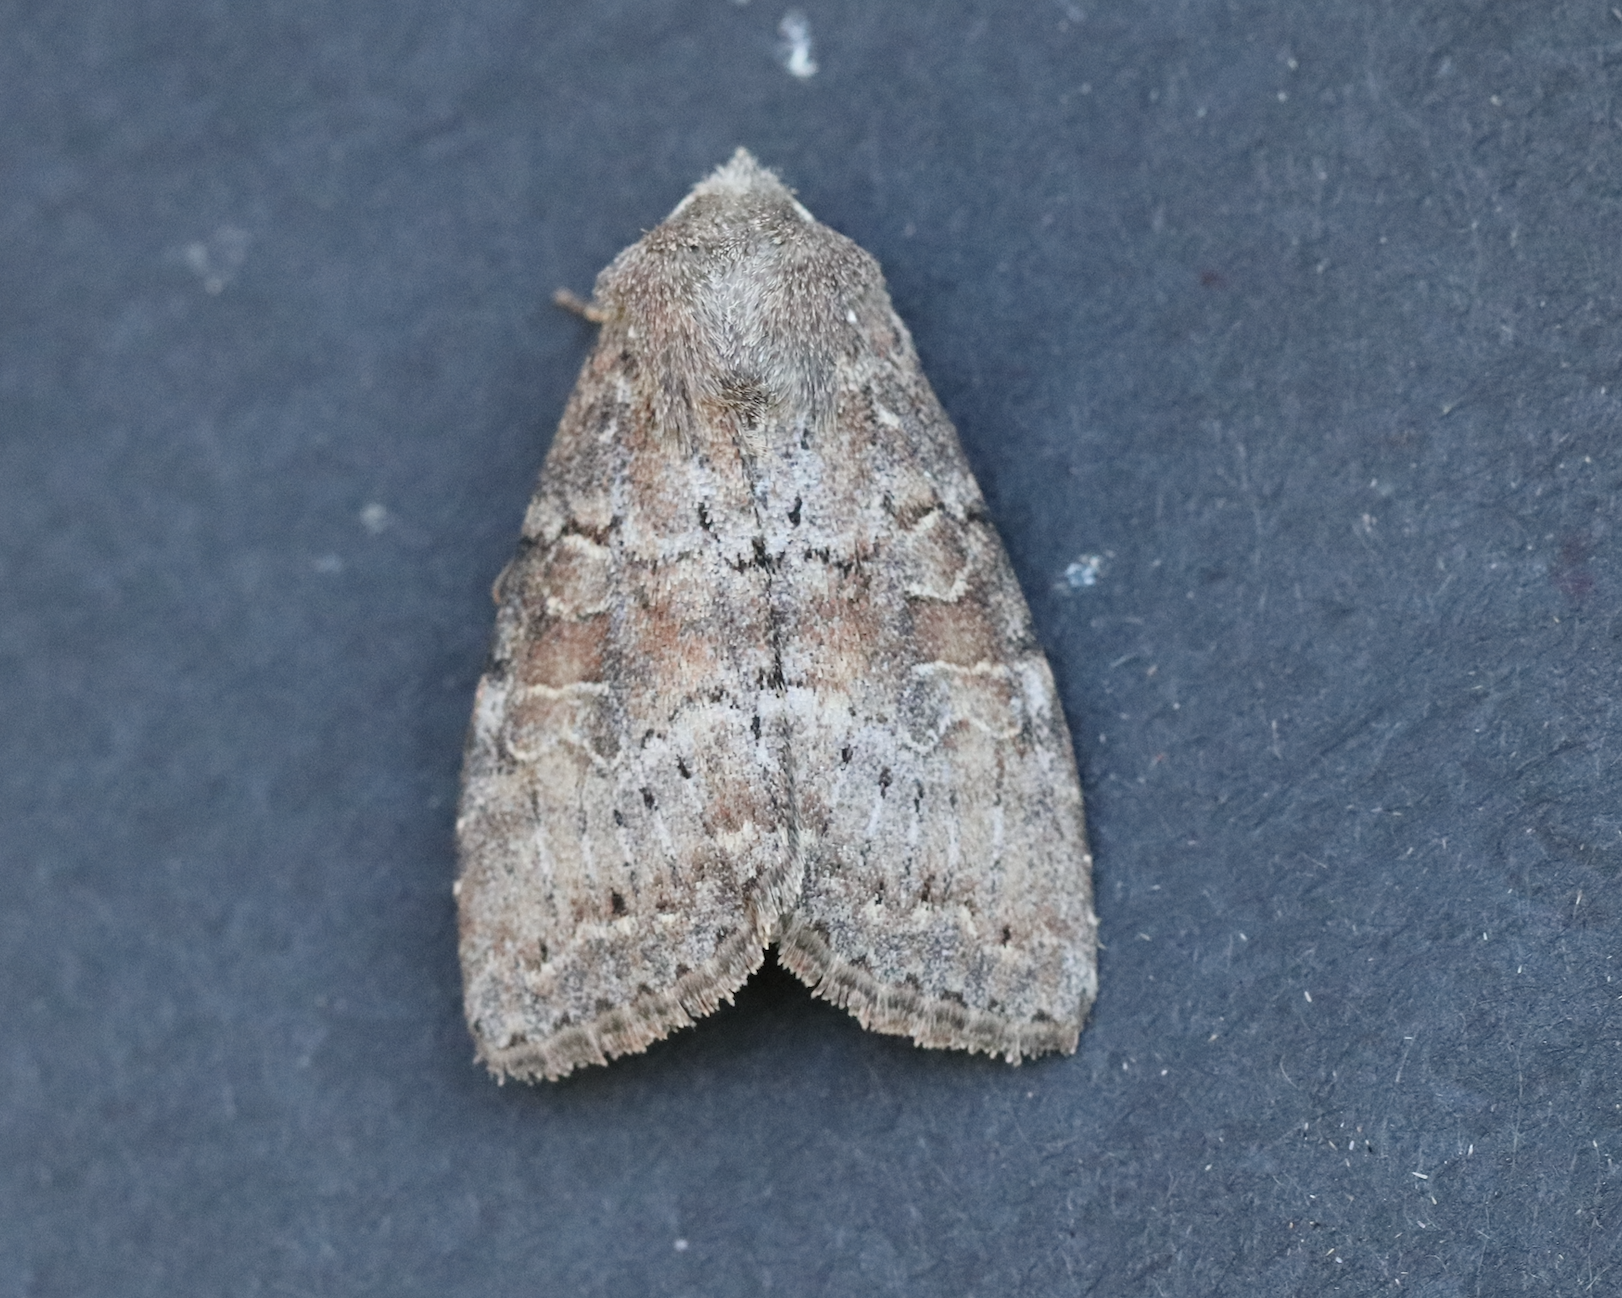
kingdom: Animalia
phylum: Arthropoda
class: Insecta
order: Lepidoptera
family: Noctuidae
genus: Parastichtis
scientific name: Parastichtis suspecta
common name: Suspected
